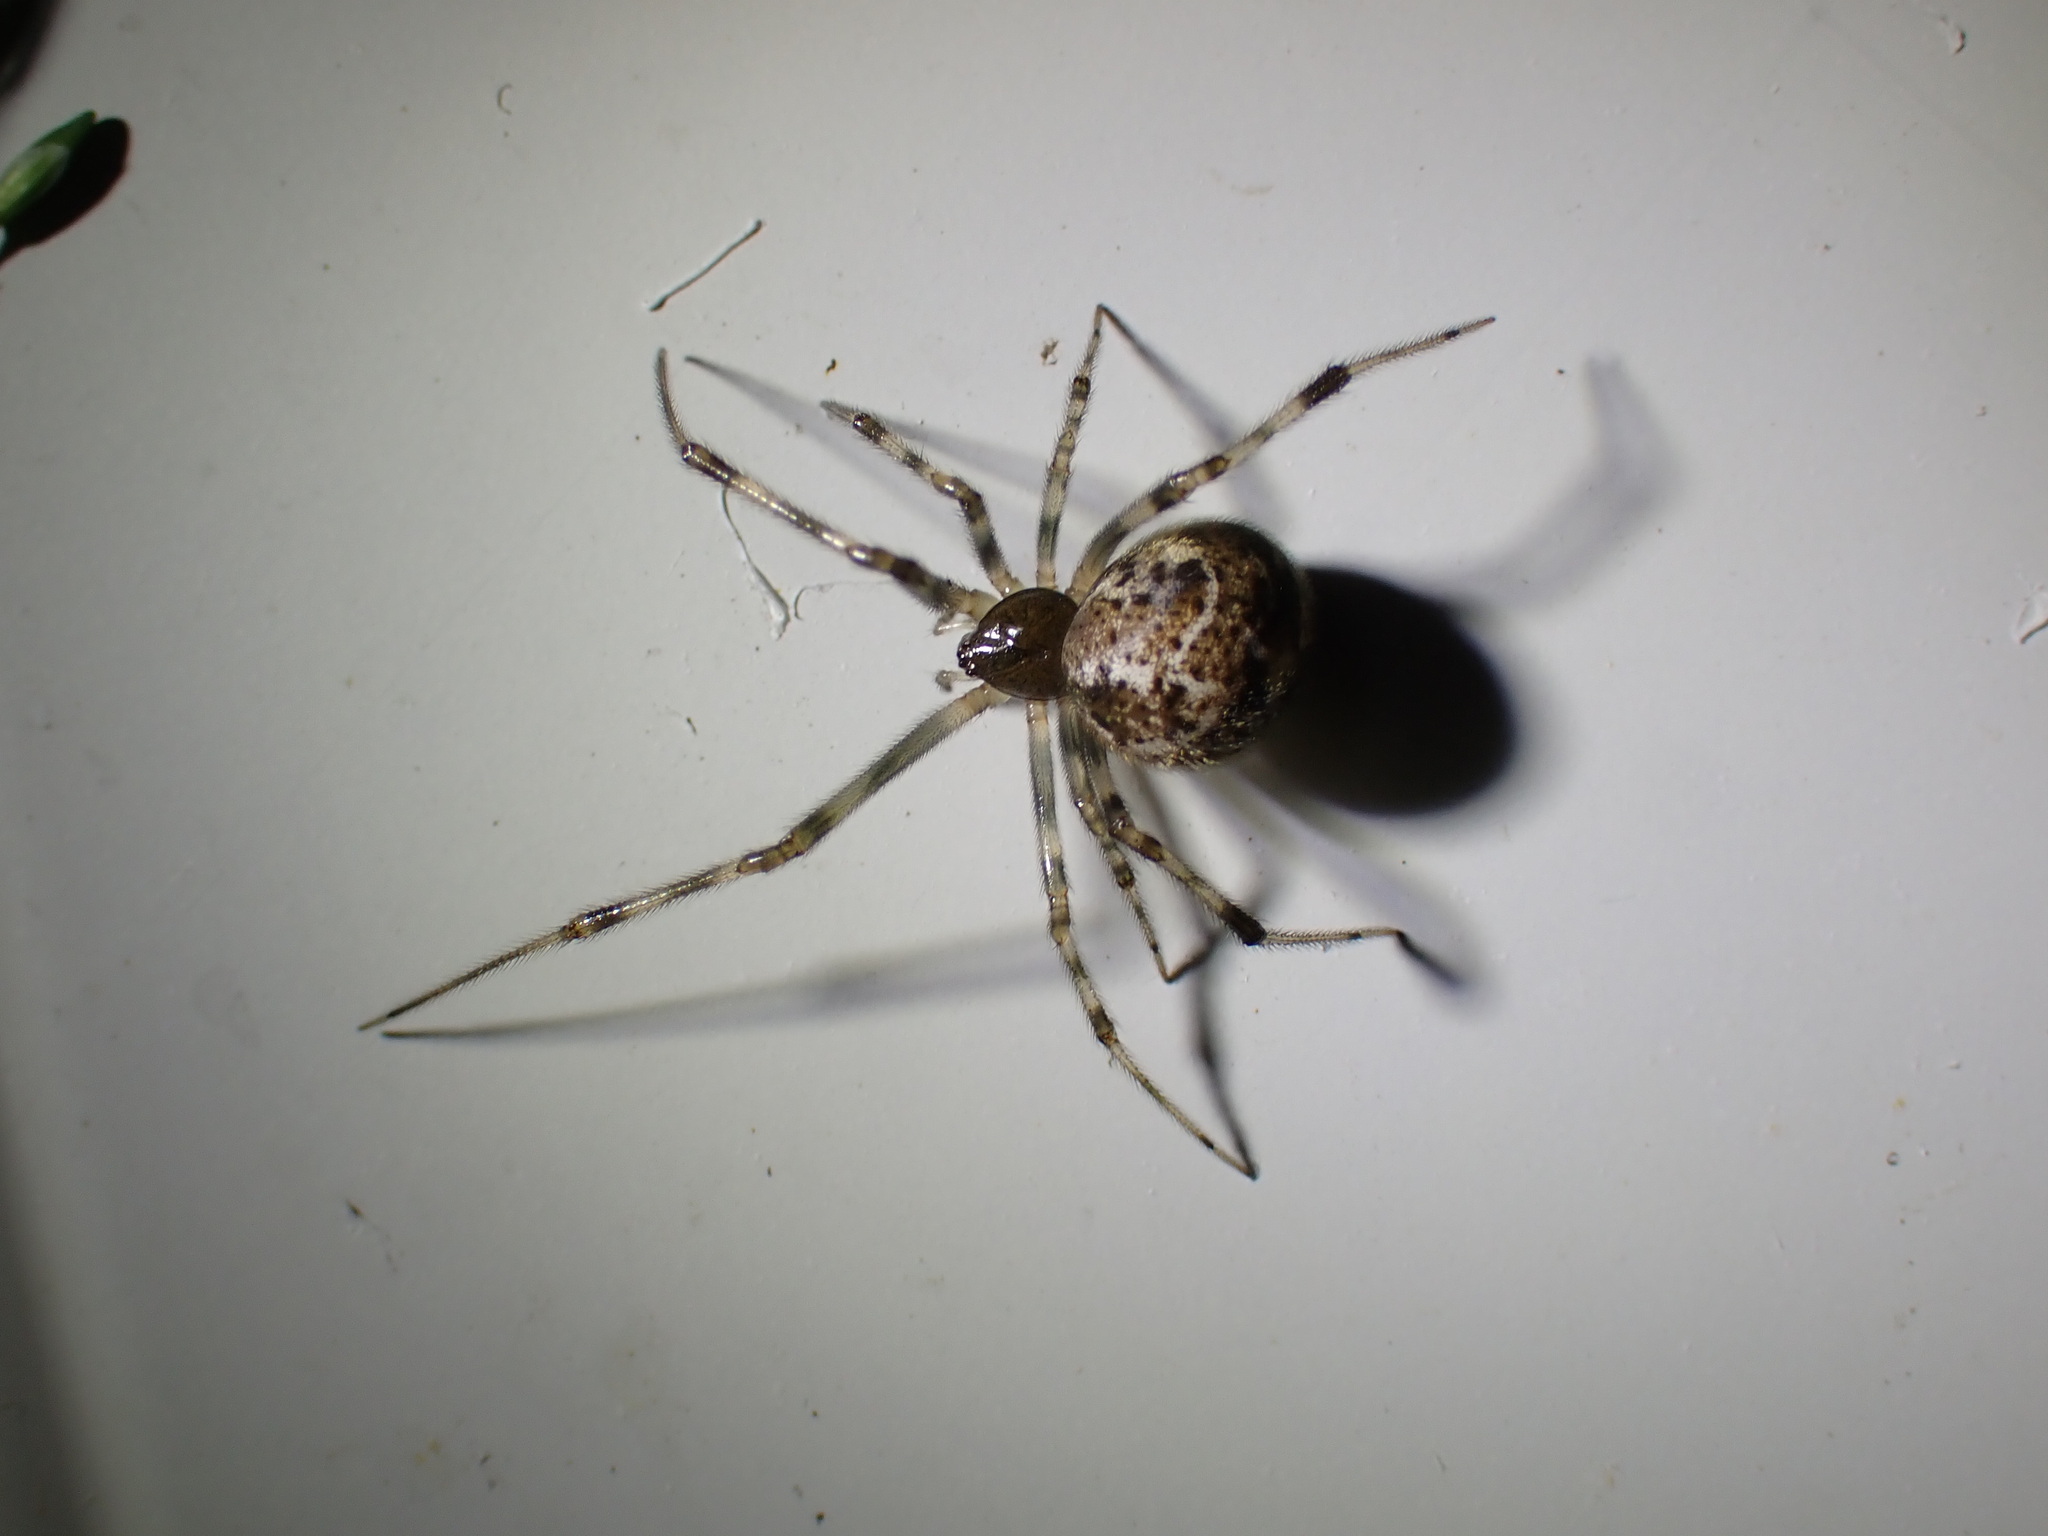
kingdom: Animalia
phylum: Arthropoda
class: Arachnida
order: Araneae
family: Theridiidae
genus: Parasteatoda
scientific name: Parasteatoda tepidariorum
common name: Common house spider
